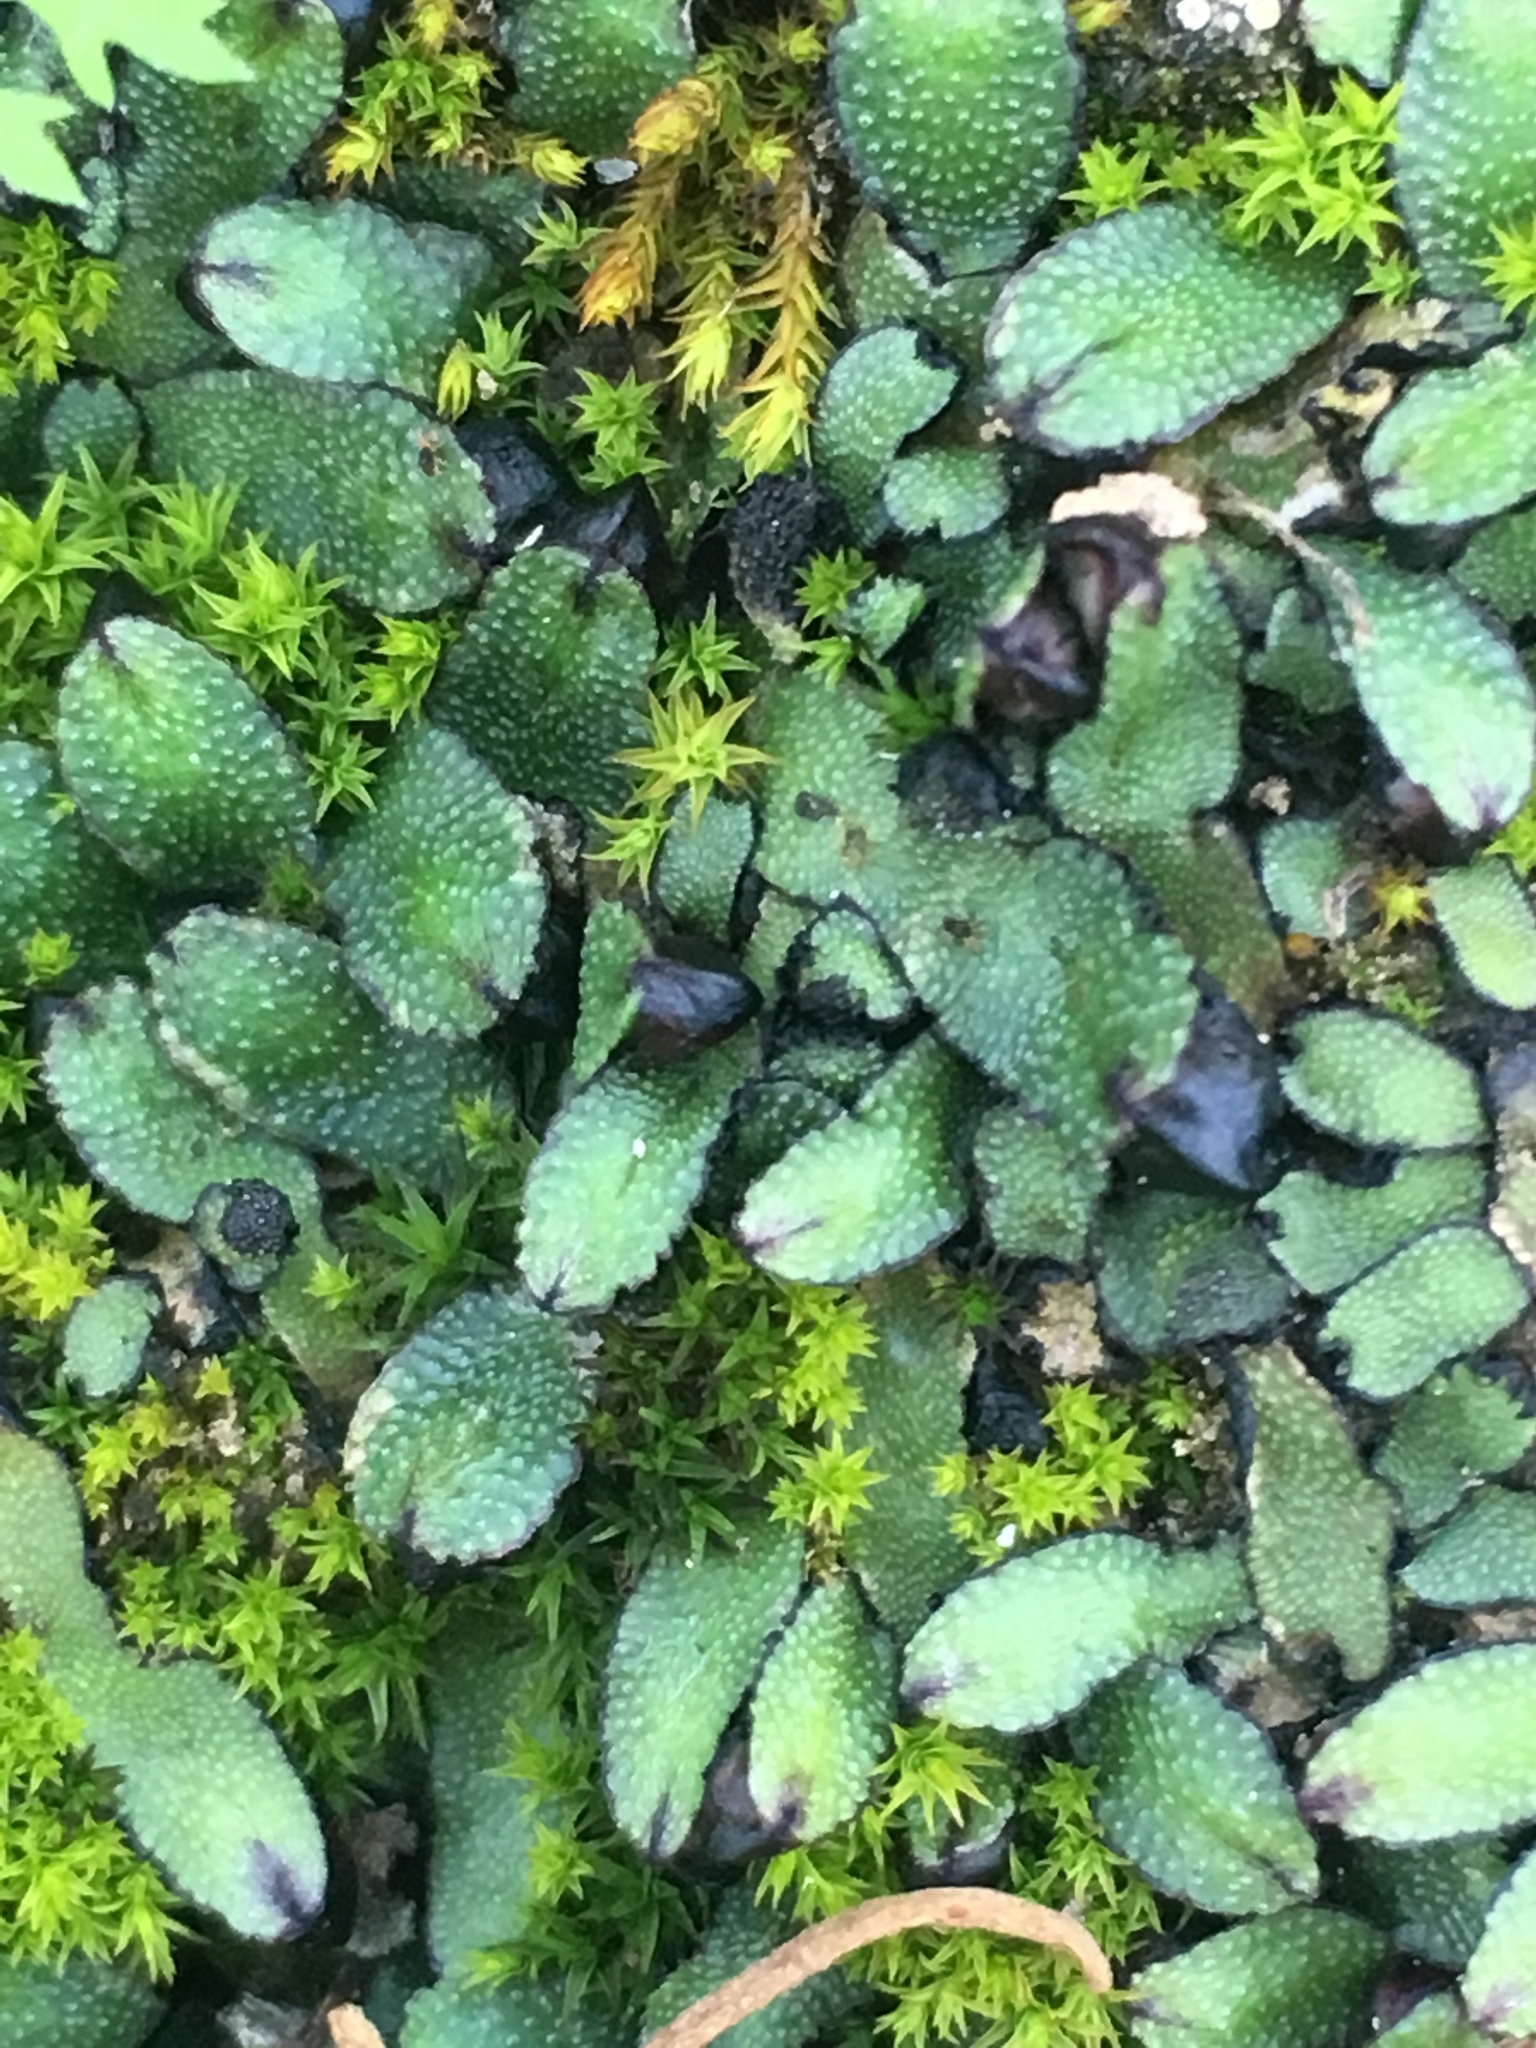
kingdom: Plantae
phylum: Marchantiophyta
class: Marchantiopsida
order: Marchantiales
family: Targioniaceae
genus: Targionia
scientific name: Targionia hypophylla
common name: Orobus-seed liverwort
